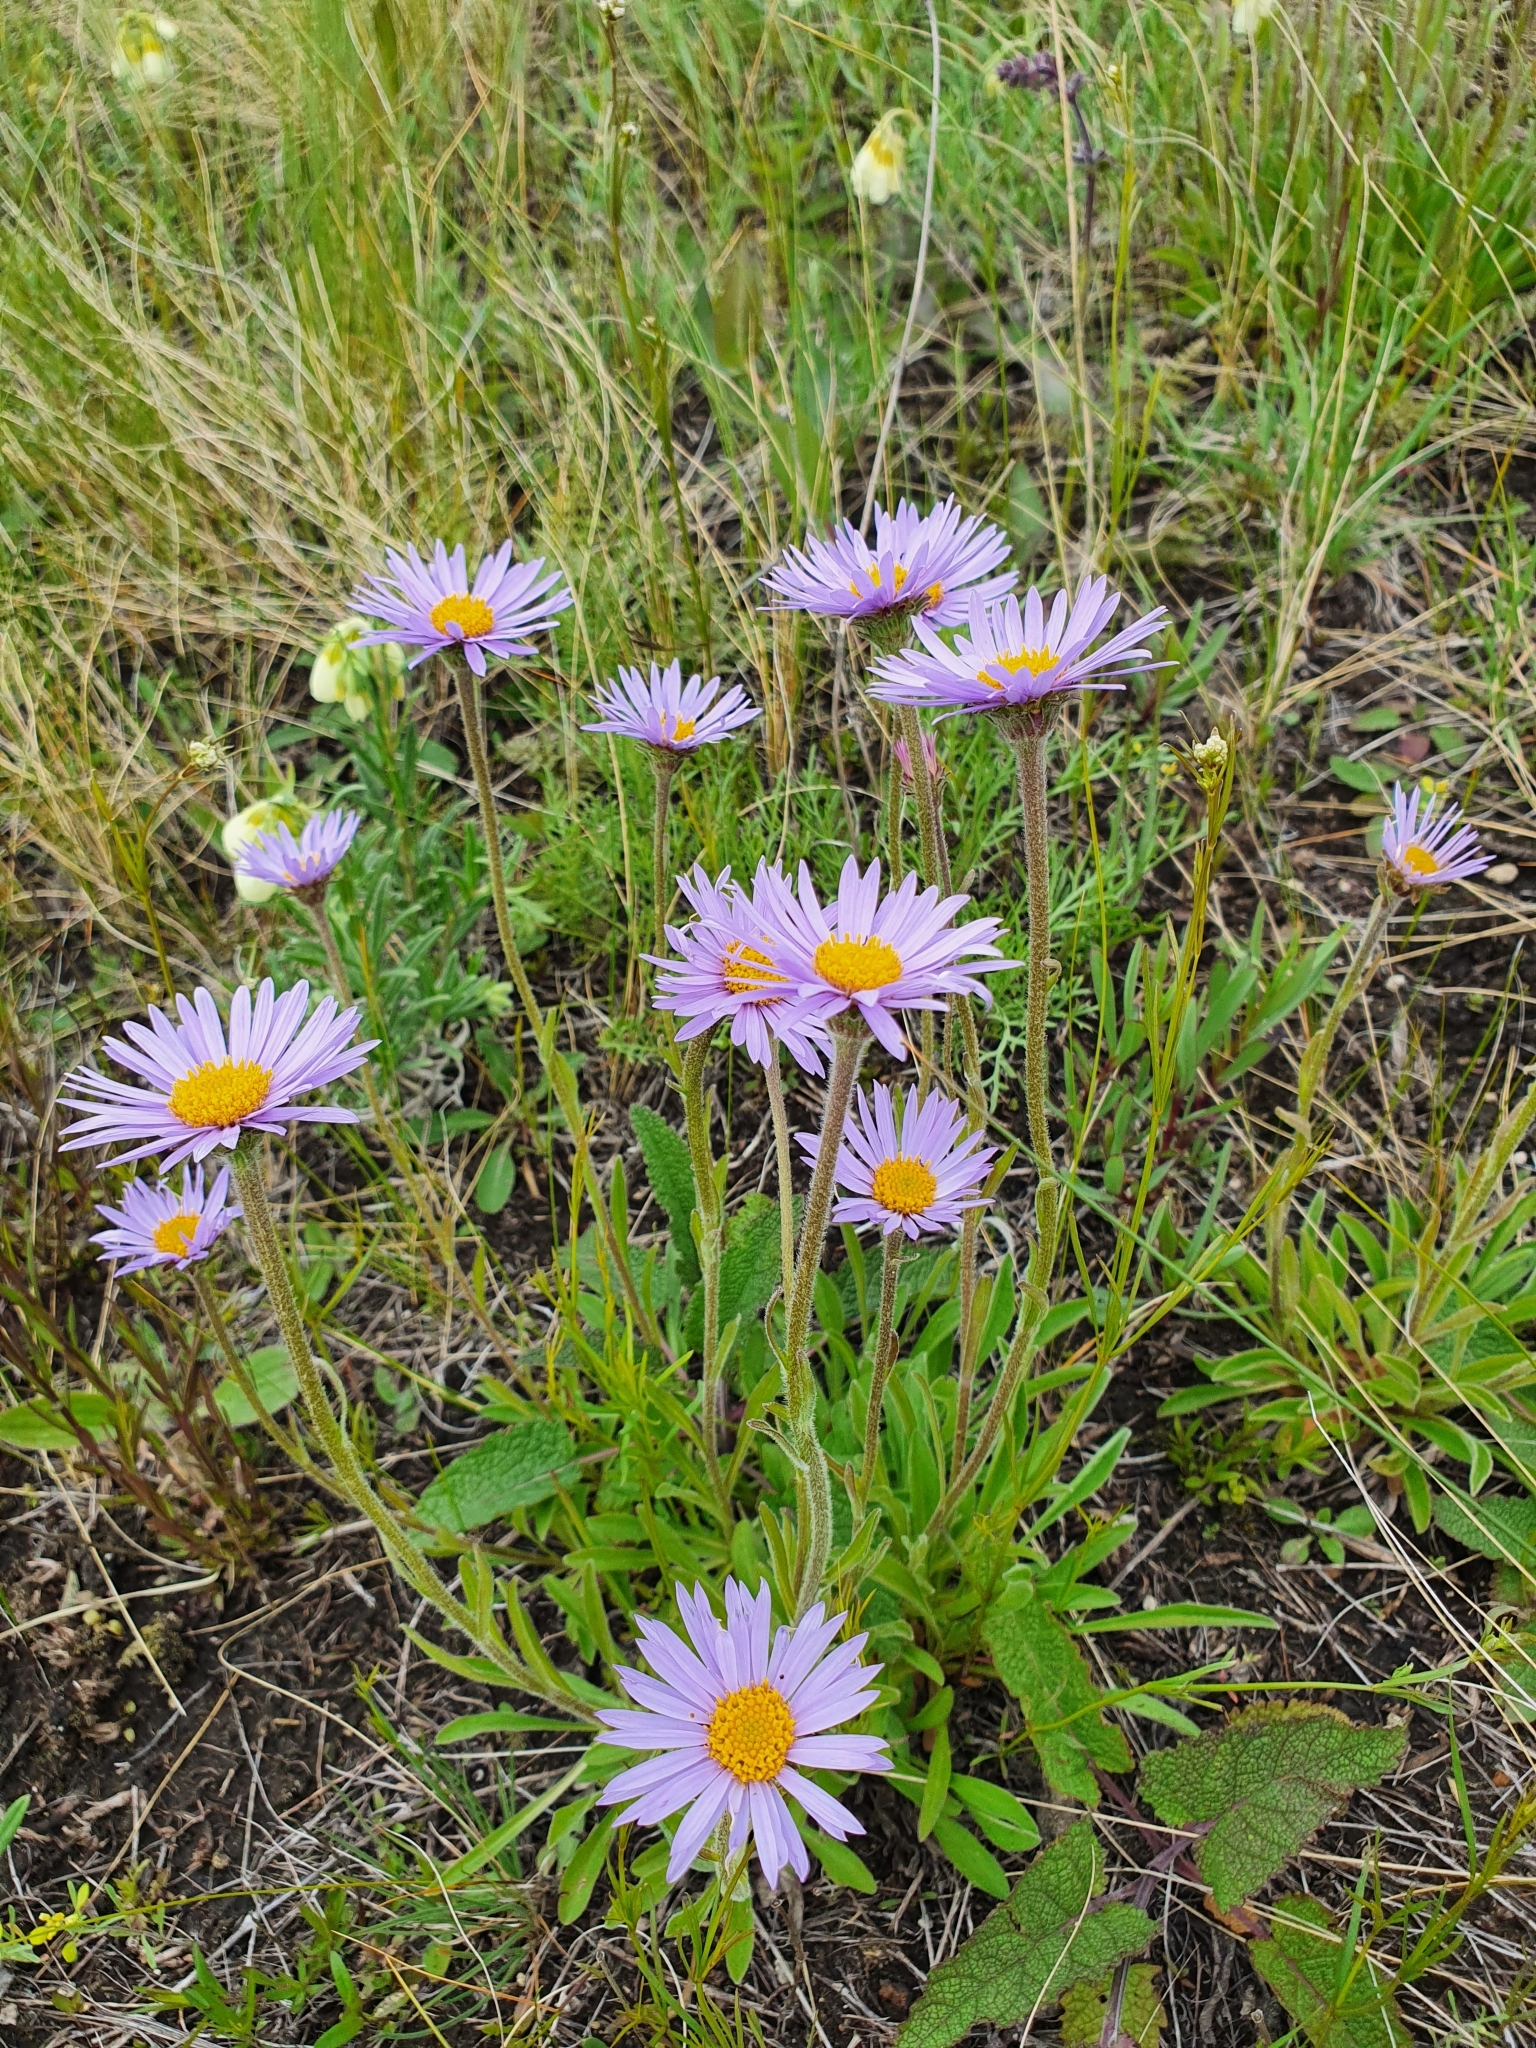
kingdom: Plantae
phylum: Tracheophyta
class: Magnoliopsida
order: Asterales
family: Asteraceae
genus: Aster
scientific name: Aster alpinus
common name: Alpine aster
